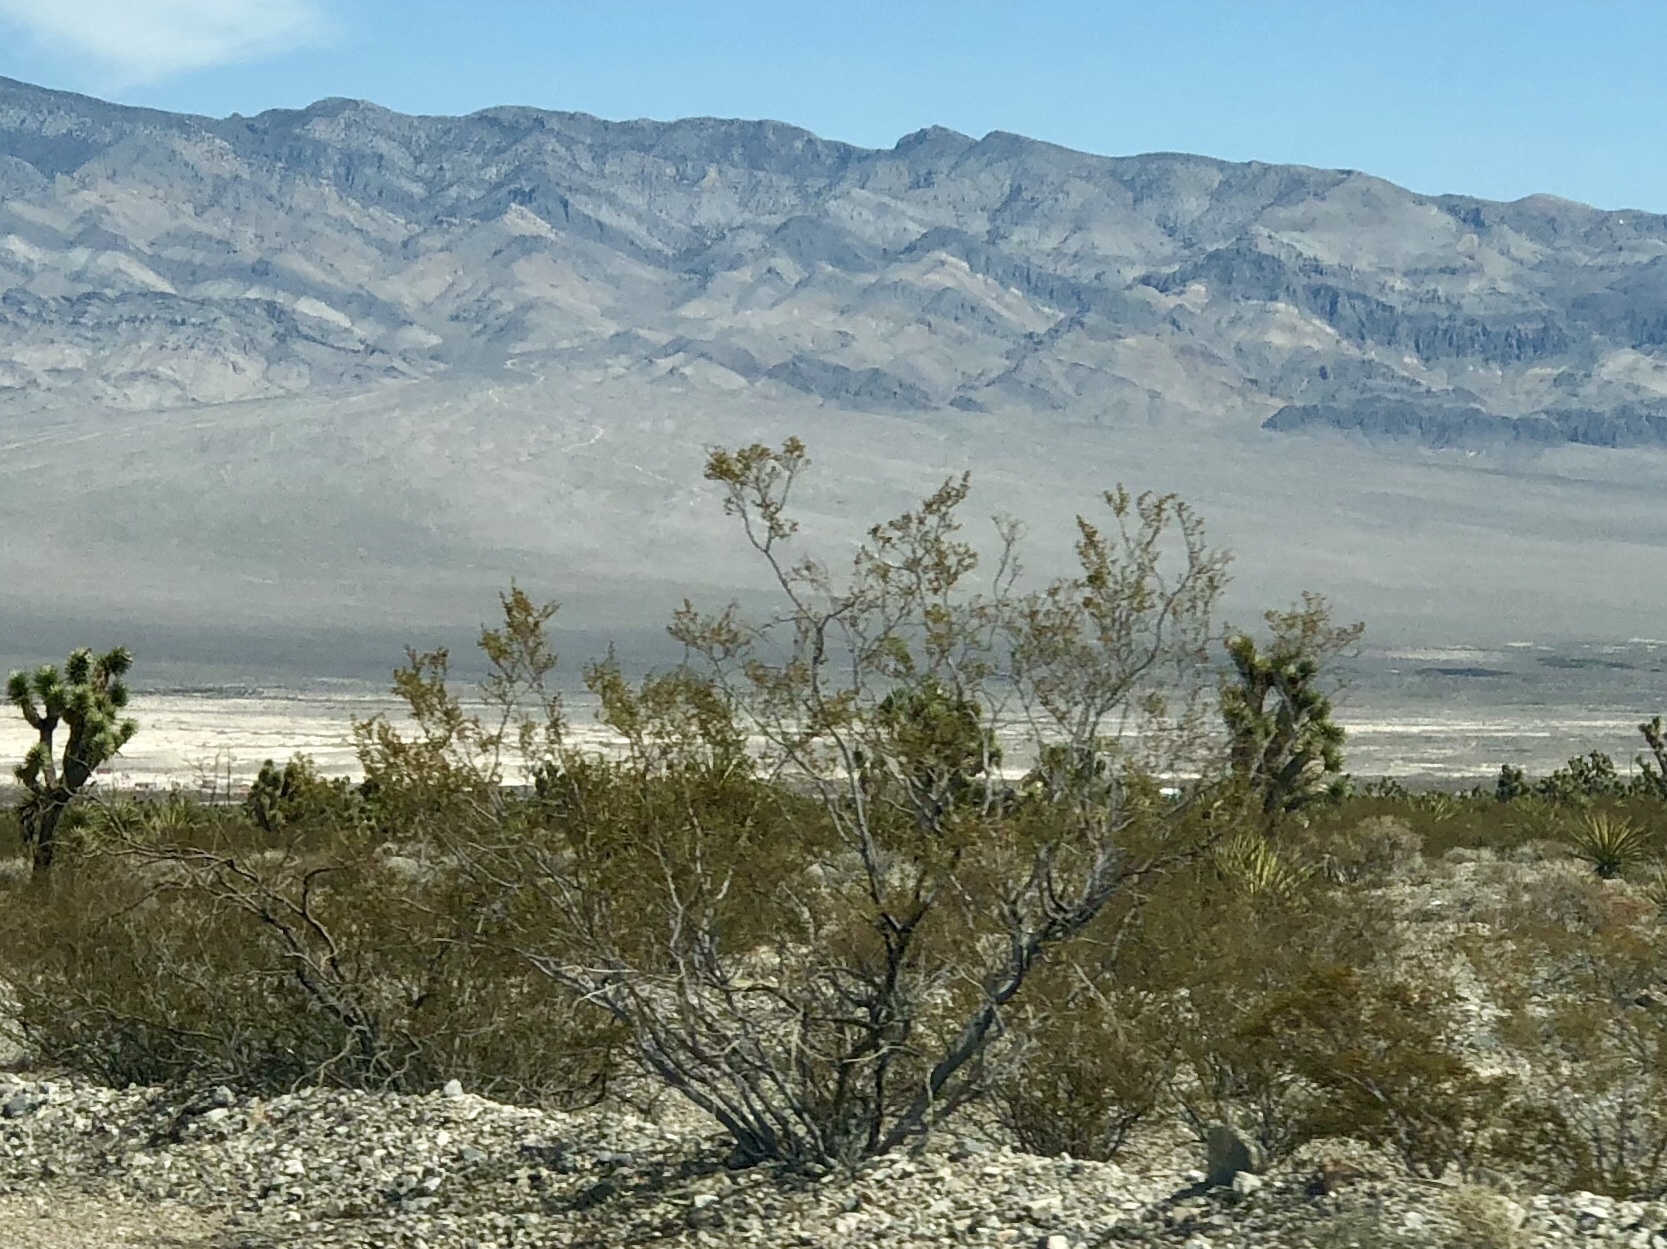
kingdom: Plantae
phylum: Tracheophyta
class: Magnoliopsida
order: Zygophyllales
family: Zygophyllaceae
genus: Larrea
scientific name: Larrea tridentata
